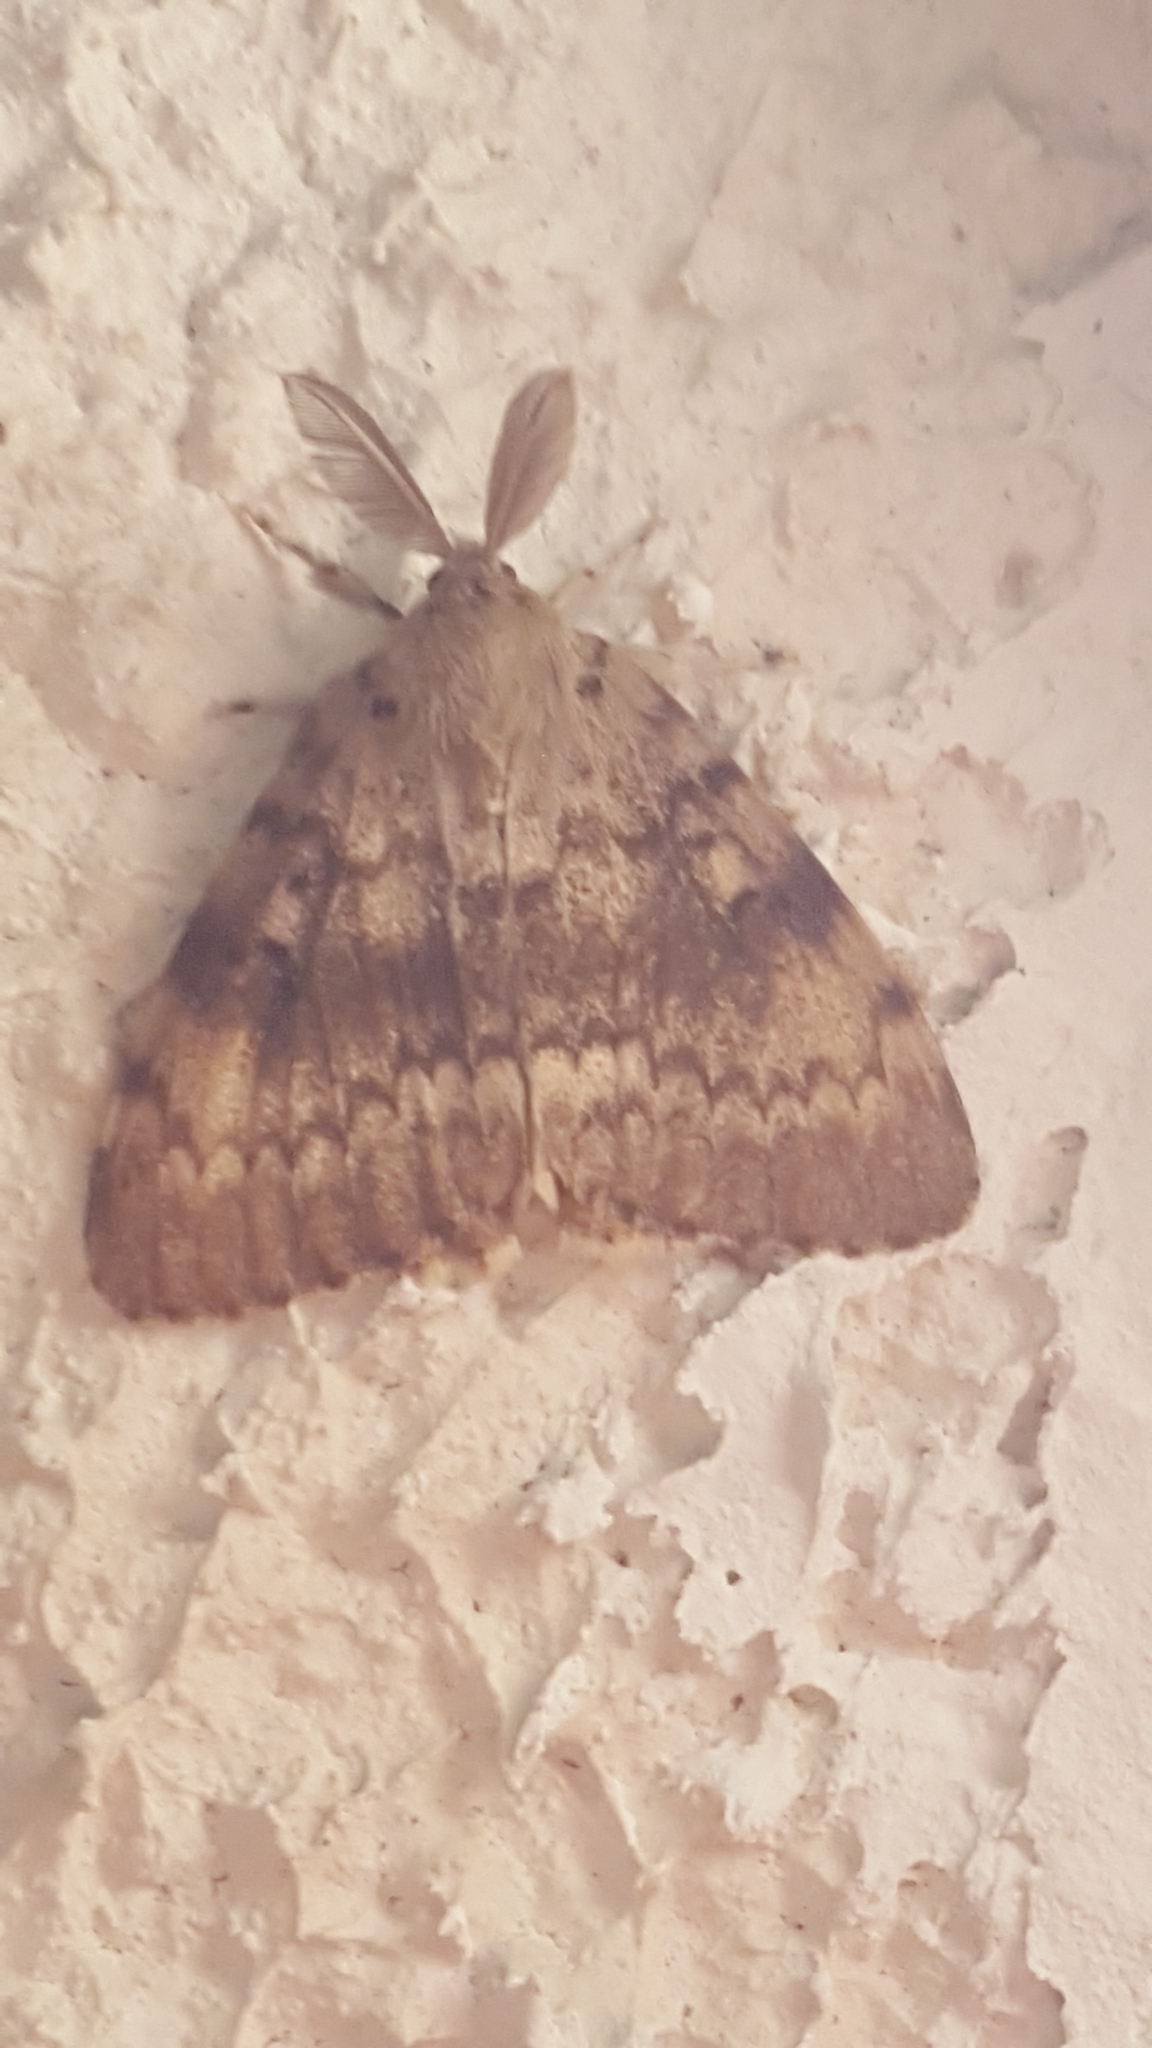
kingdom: Animalia
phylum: Arthropoda
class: Insecta
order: Lepidoptera
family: Erebidae
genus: Lymantria
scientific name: Lymantria dispar
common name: Gypsy moth
